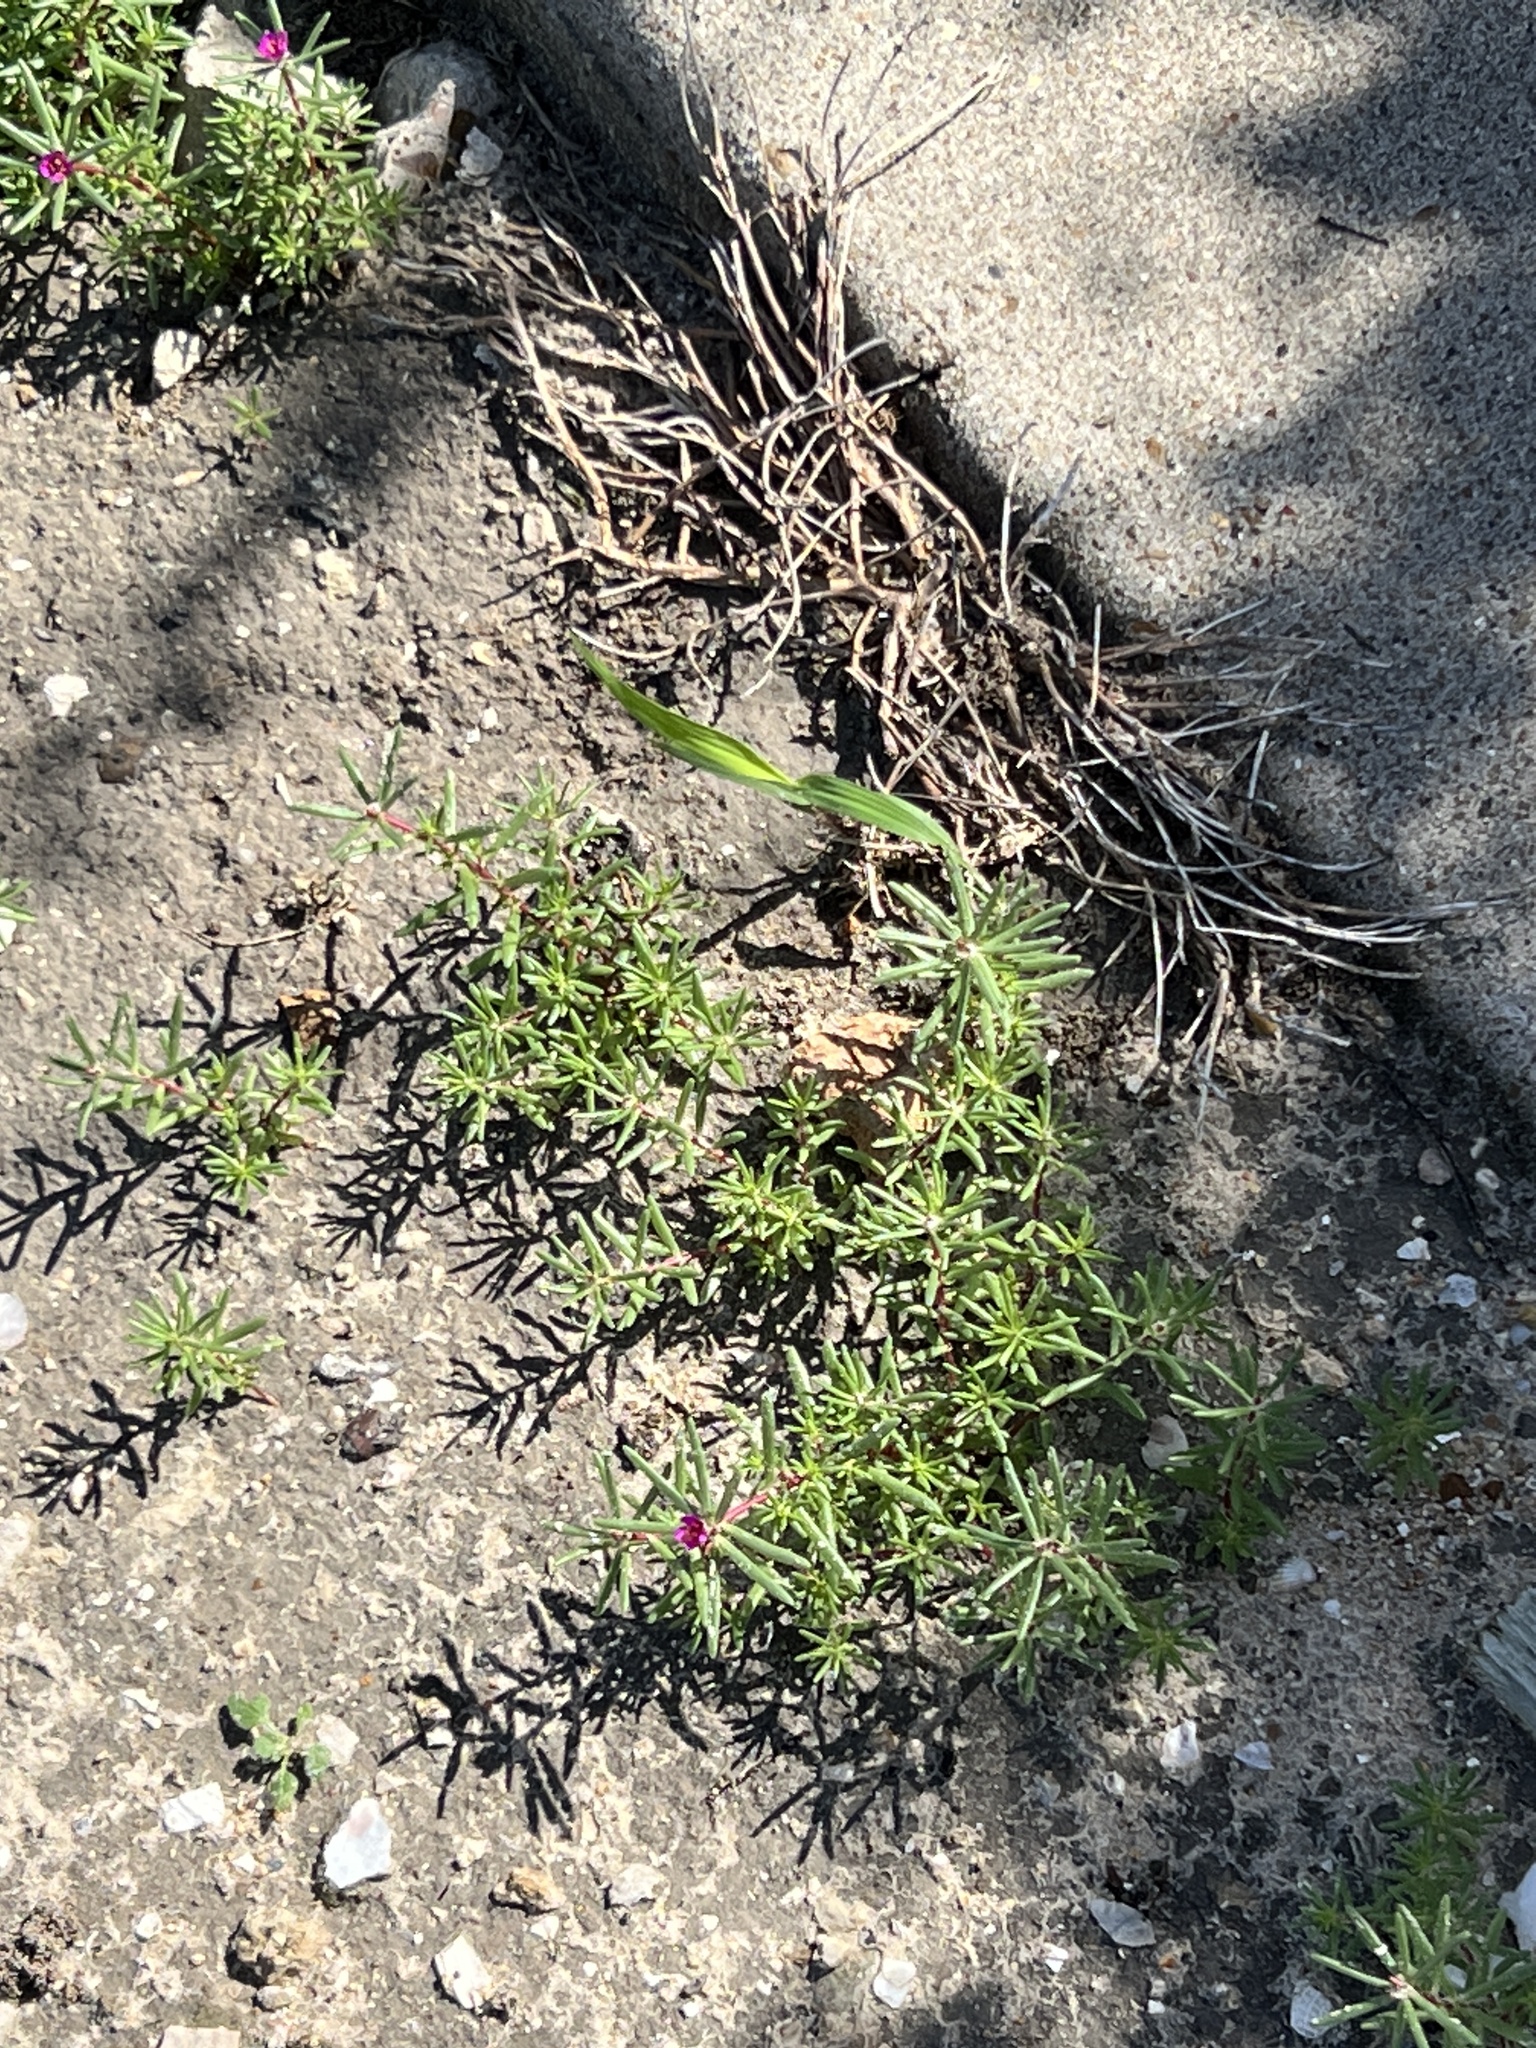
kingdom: Plantae
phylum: Tracheophyta
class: Magnoliopsida
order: Caryophyllales
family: Portulacaceae
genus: Portulaca
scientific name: Portulaca pilosa
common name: Kiss me quick
